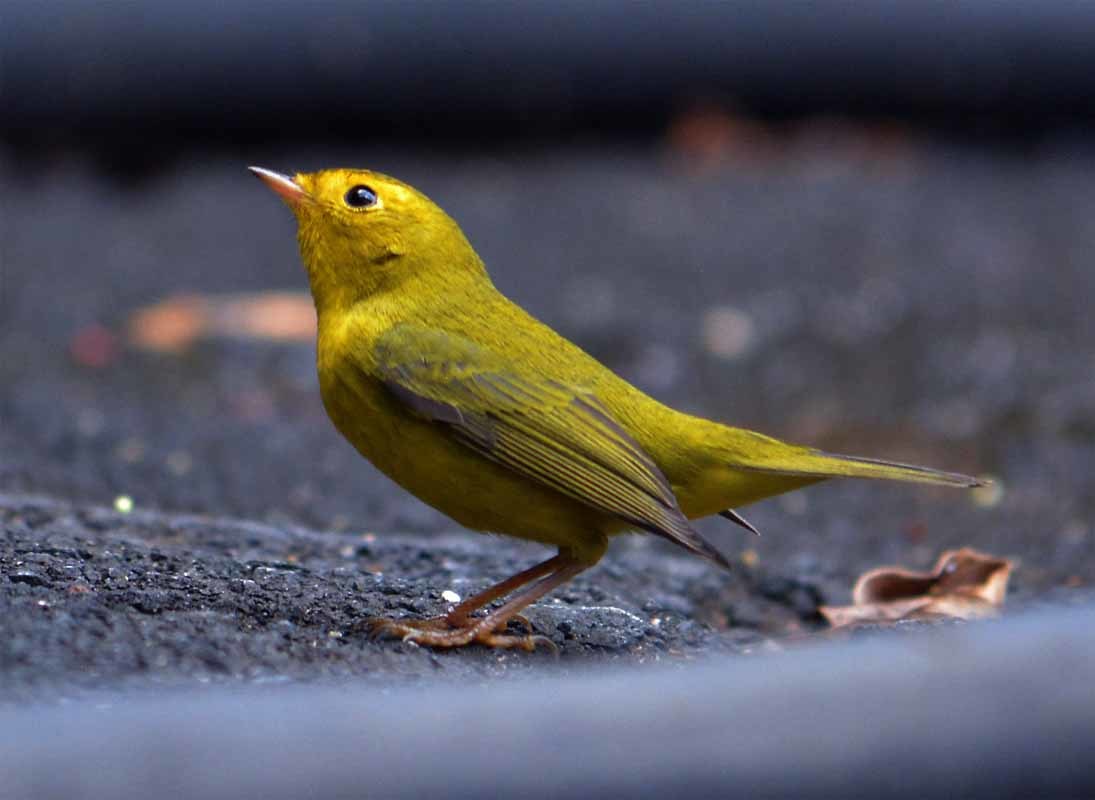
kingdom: Animalia
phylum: Chordata
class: Aves
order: Passeriformes
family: Parulidae
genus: Cardellina
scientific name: Cardellina pusilla
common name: Wilson's warbler
